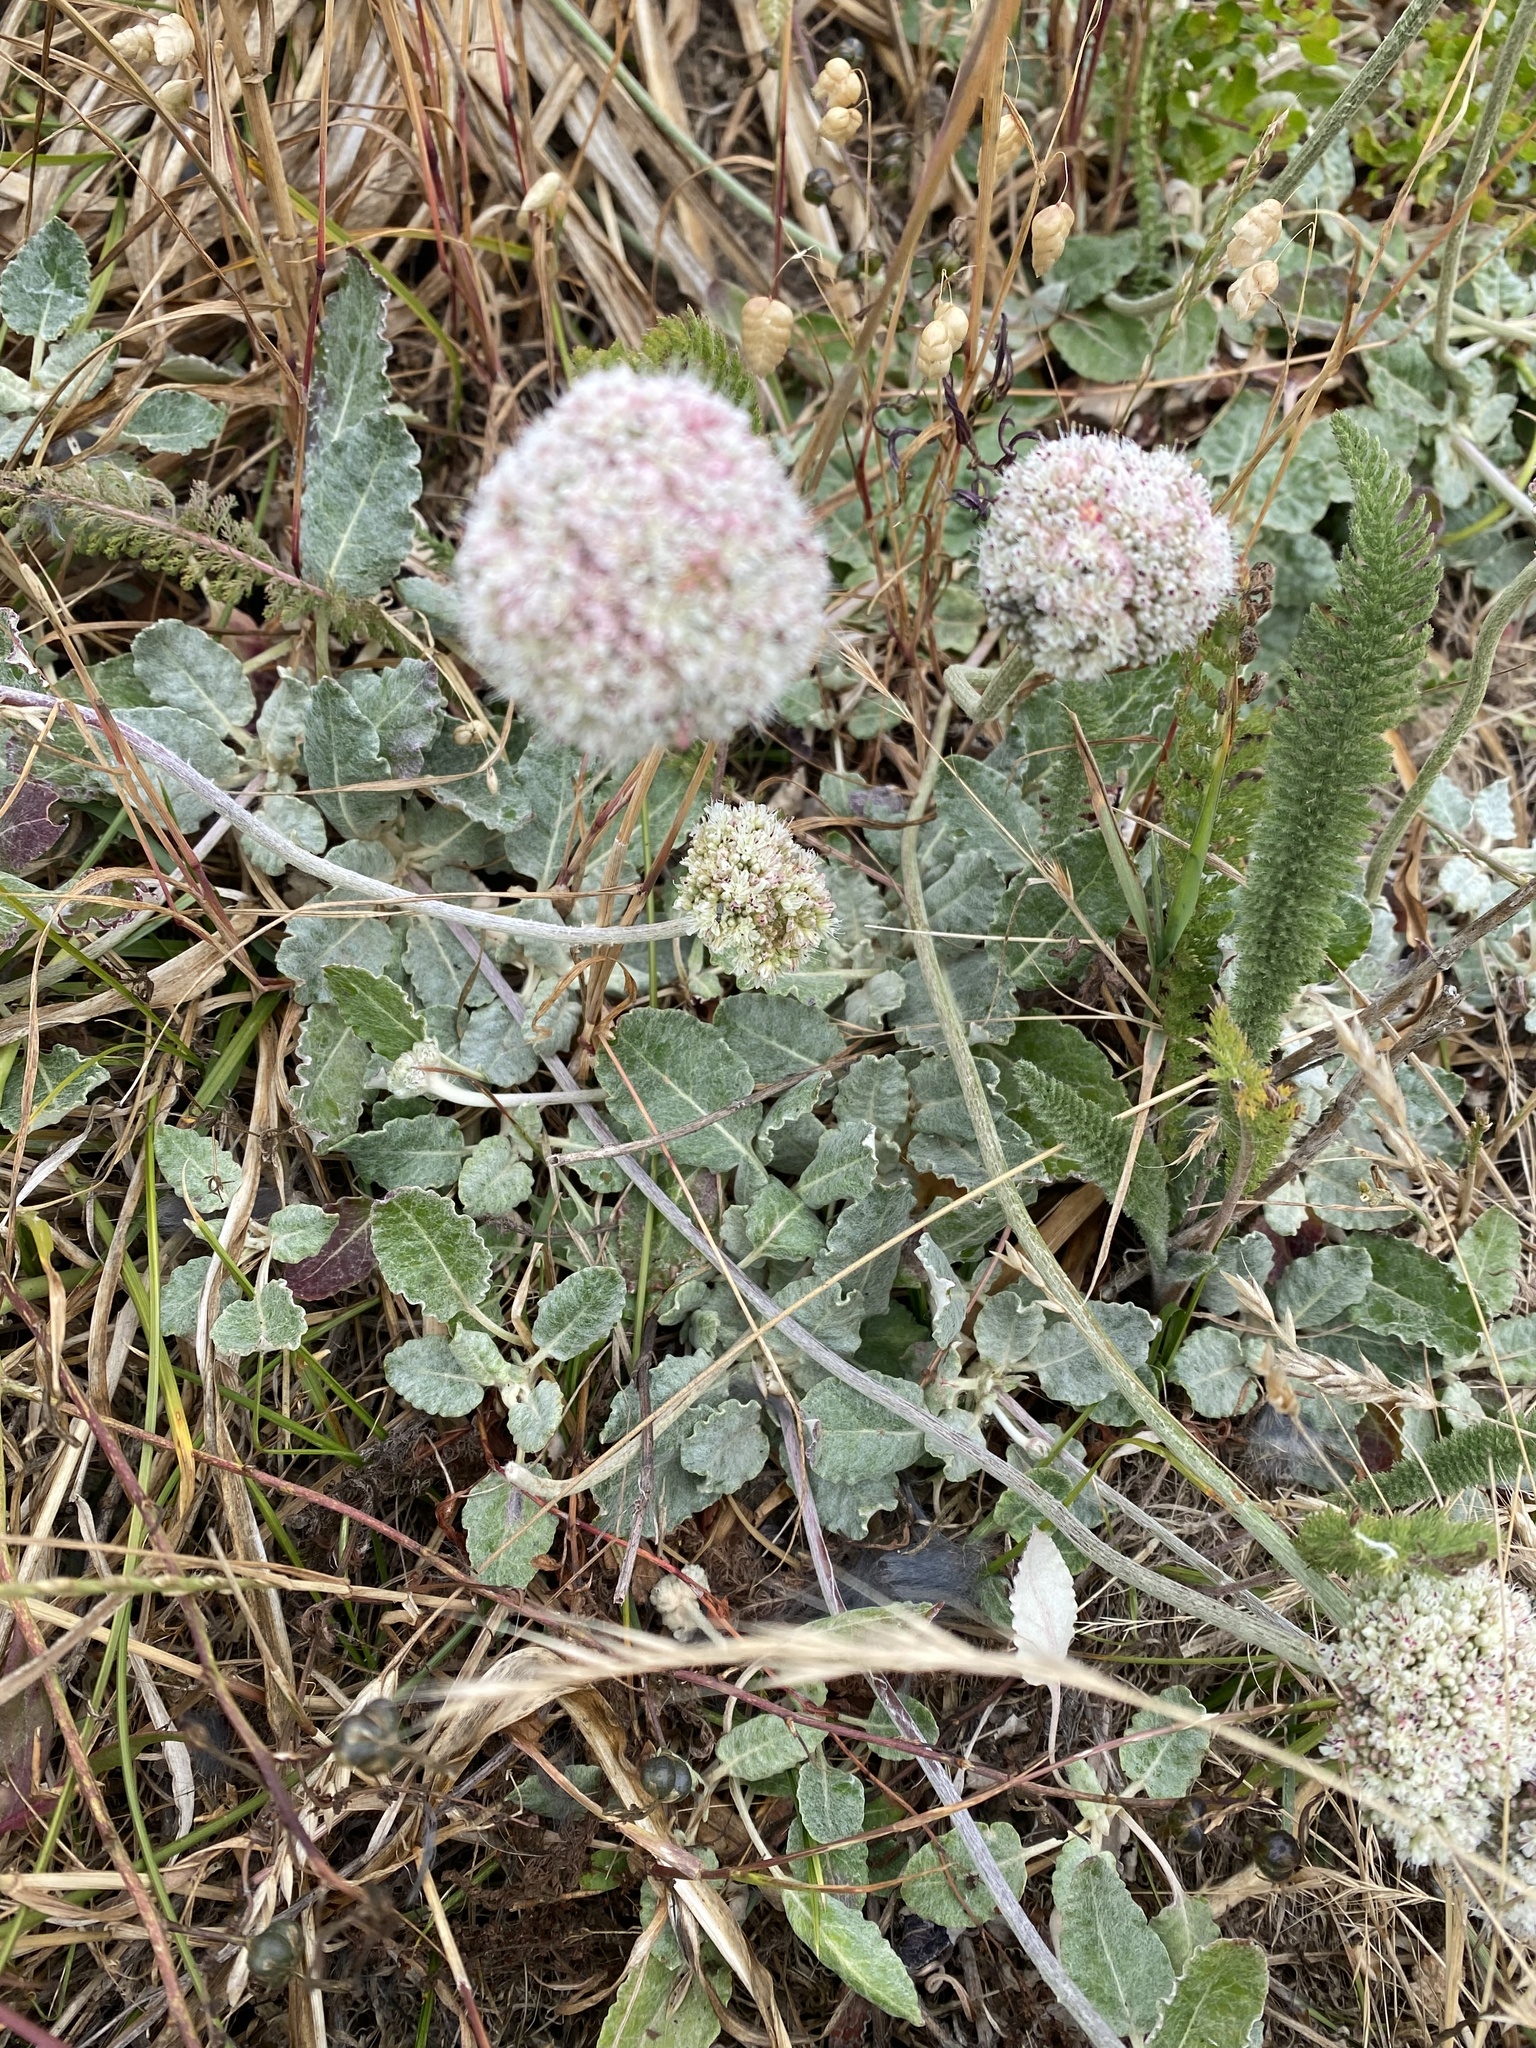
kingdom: Plantae
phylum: Tracheophyta
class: Magnoliopsida
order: Caryophyllales
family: Polygonaceae
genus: Eriogonum
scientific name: Eriogonum latifolium
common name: Seaside wild buckwheat
